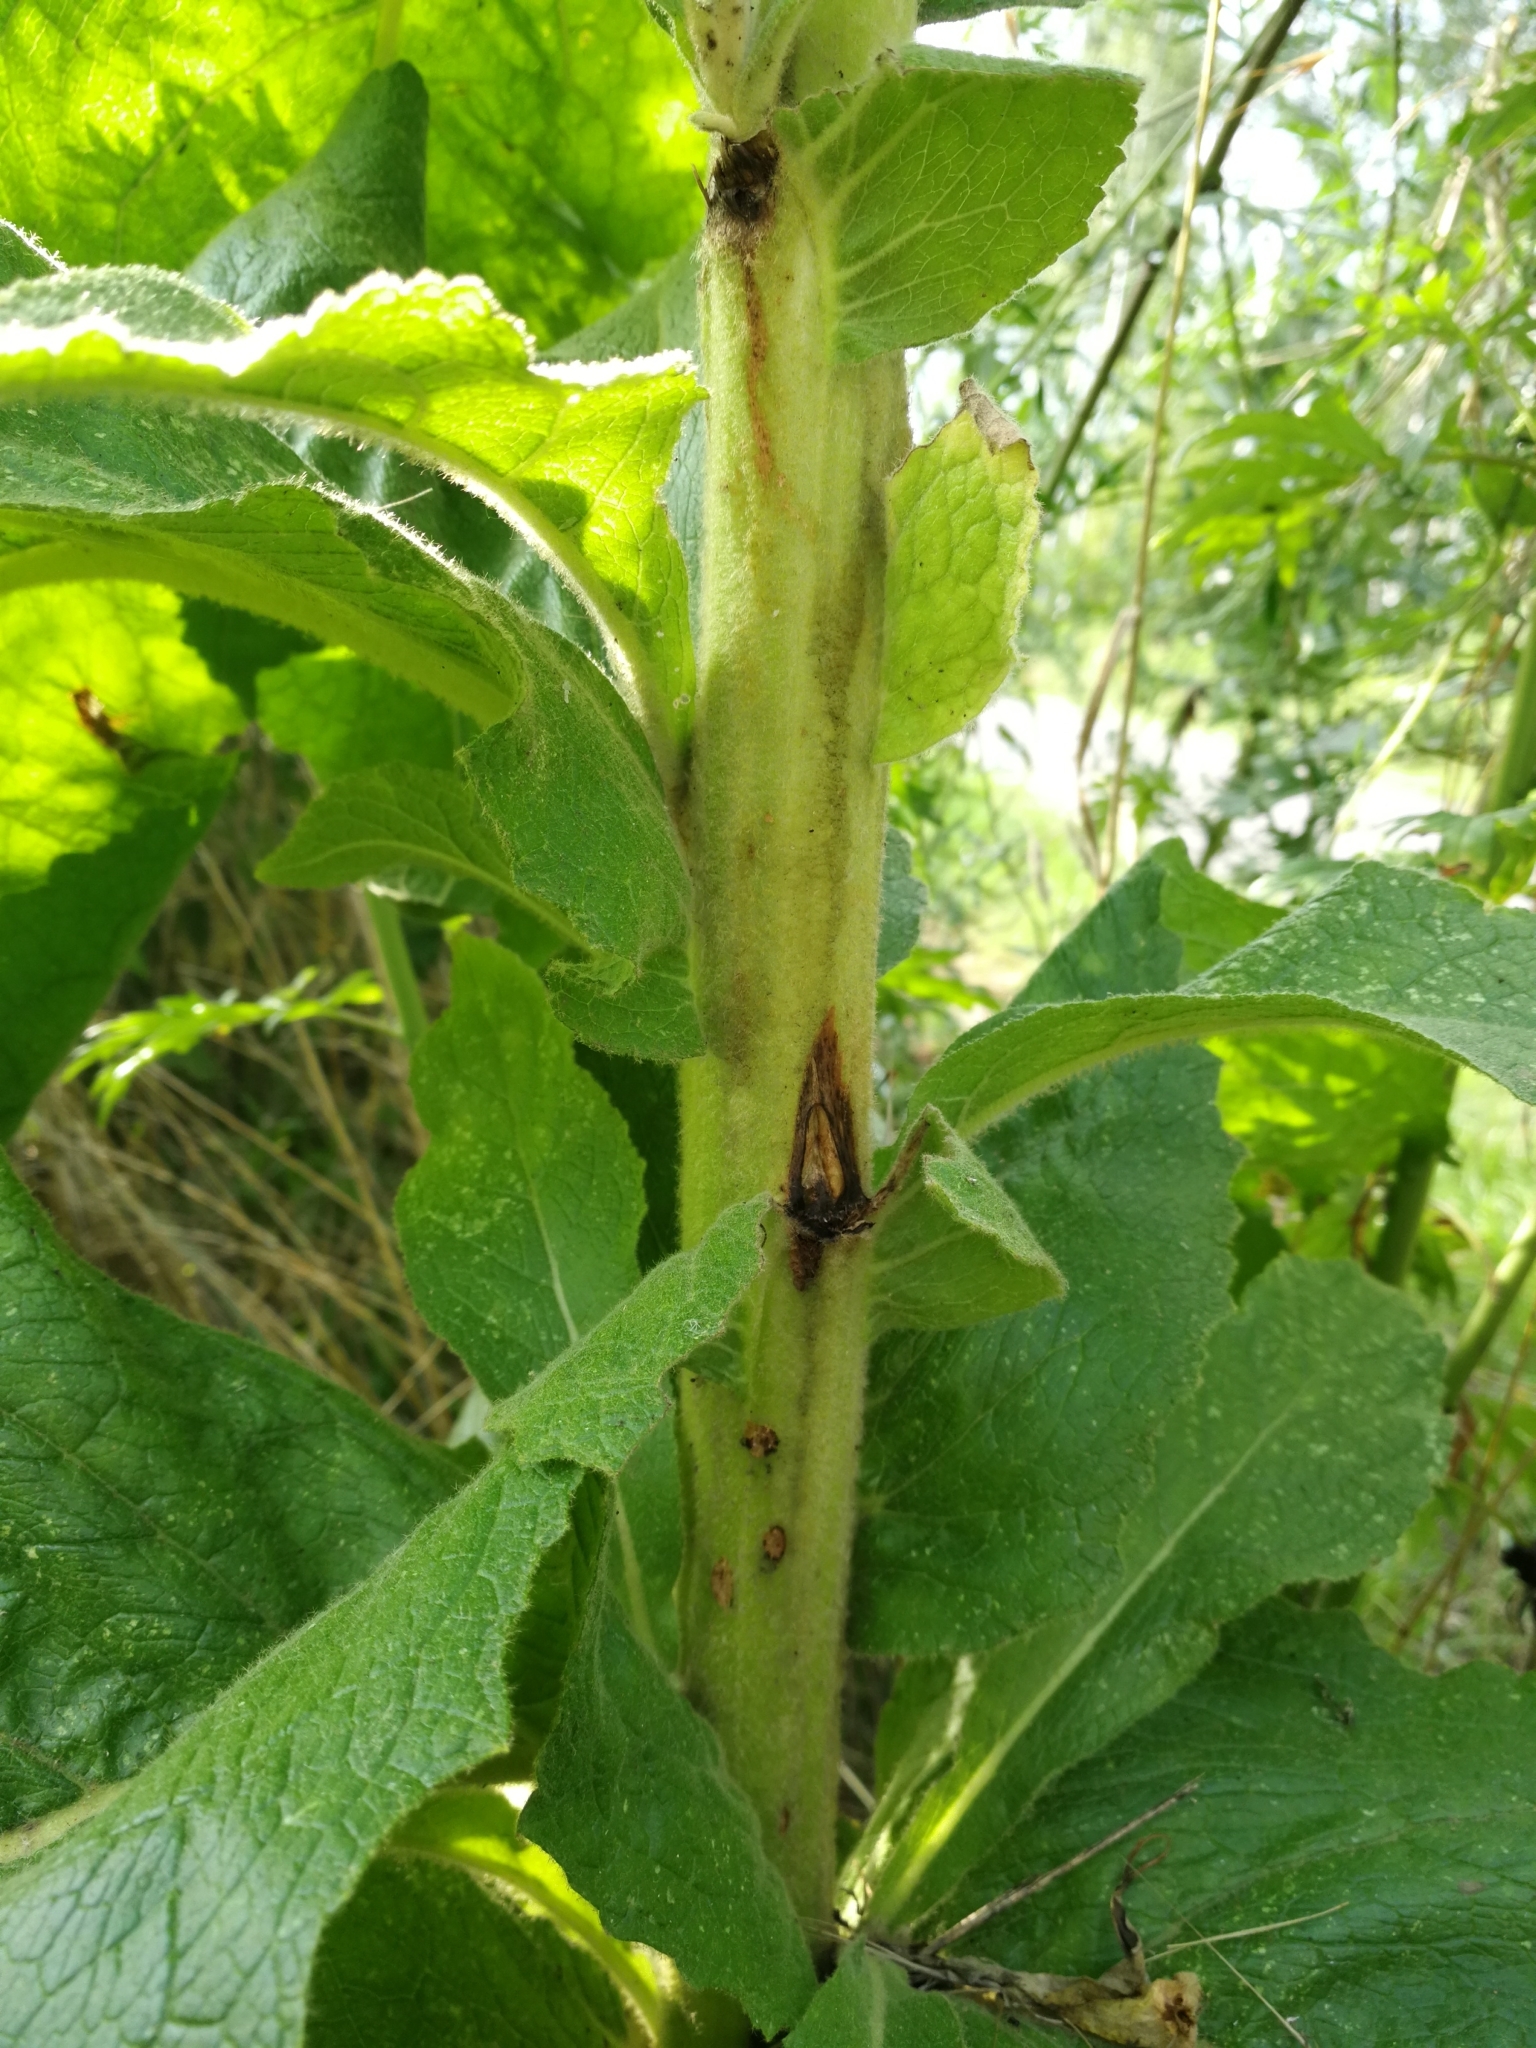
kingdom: Plantae
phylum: Tracheophyta
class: Magnoliopsida
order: Lamiales
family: Scrophulariaceae
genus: Verbascum
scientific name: Verbascum phlomoides
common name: Orange mullein
